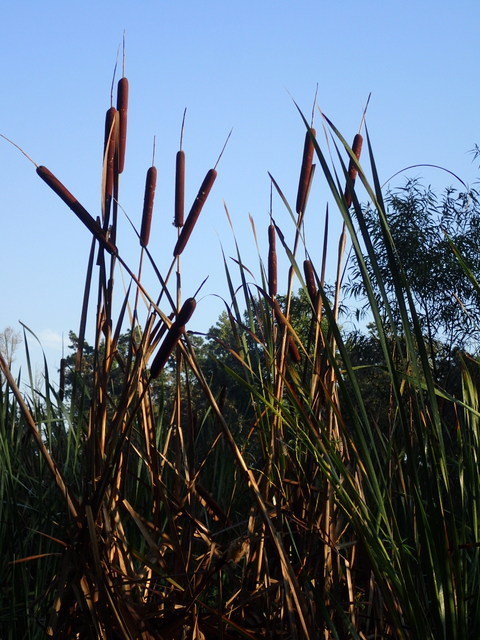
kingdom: Plantae
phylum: Tracheophyta
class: Liliopsida
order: Poales
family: Typhaceae
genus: Typha
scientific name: Typha latifolia
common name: Broadleaf cattail
